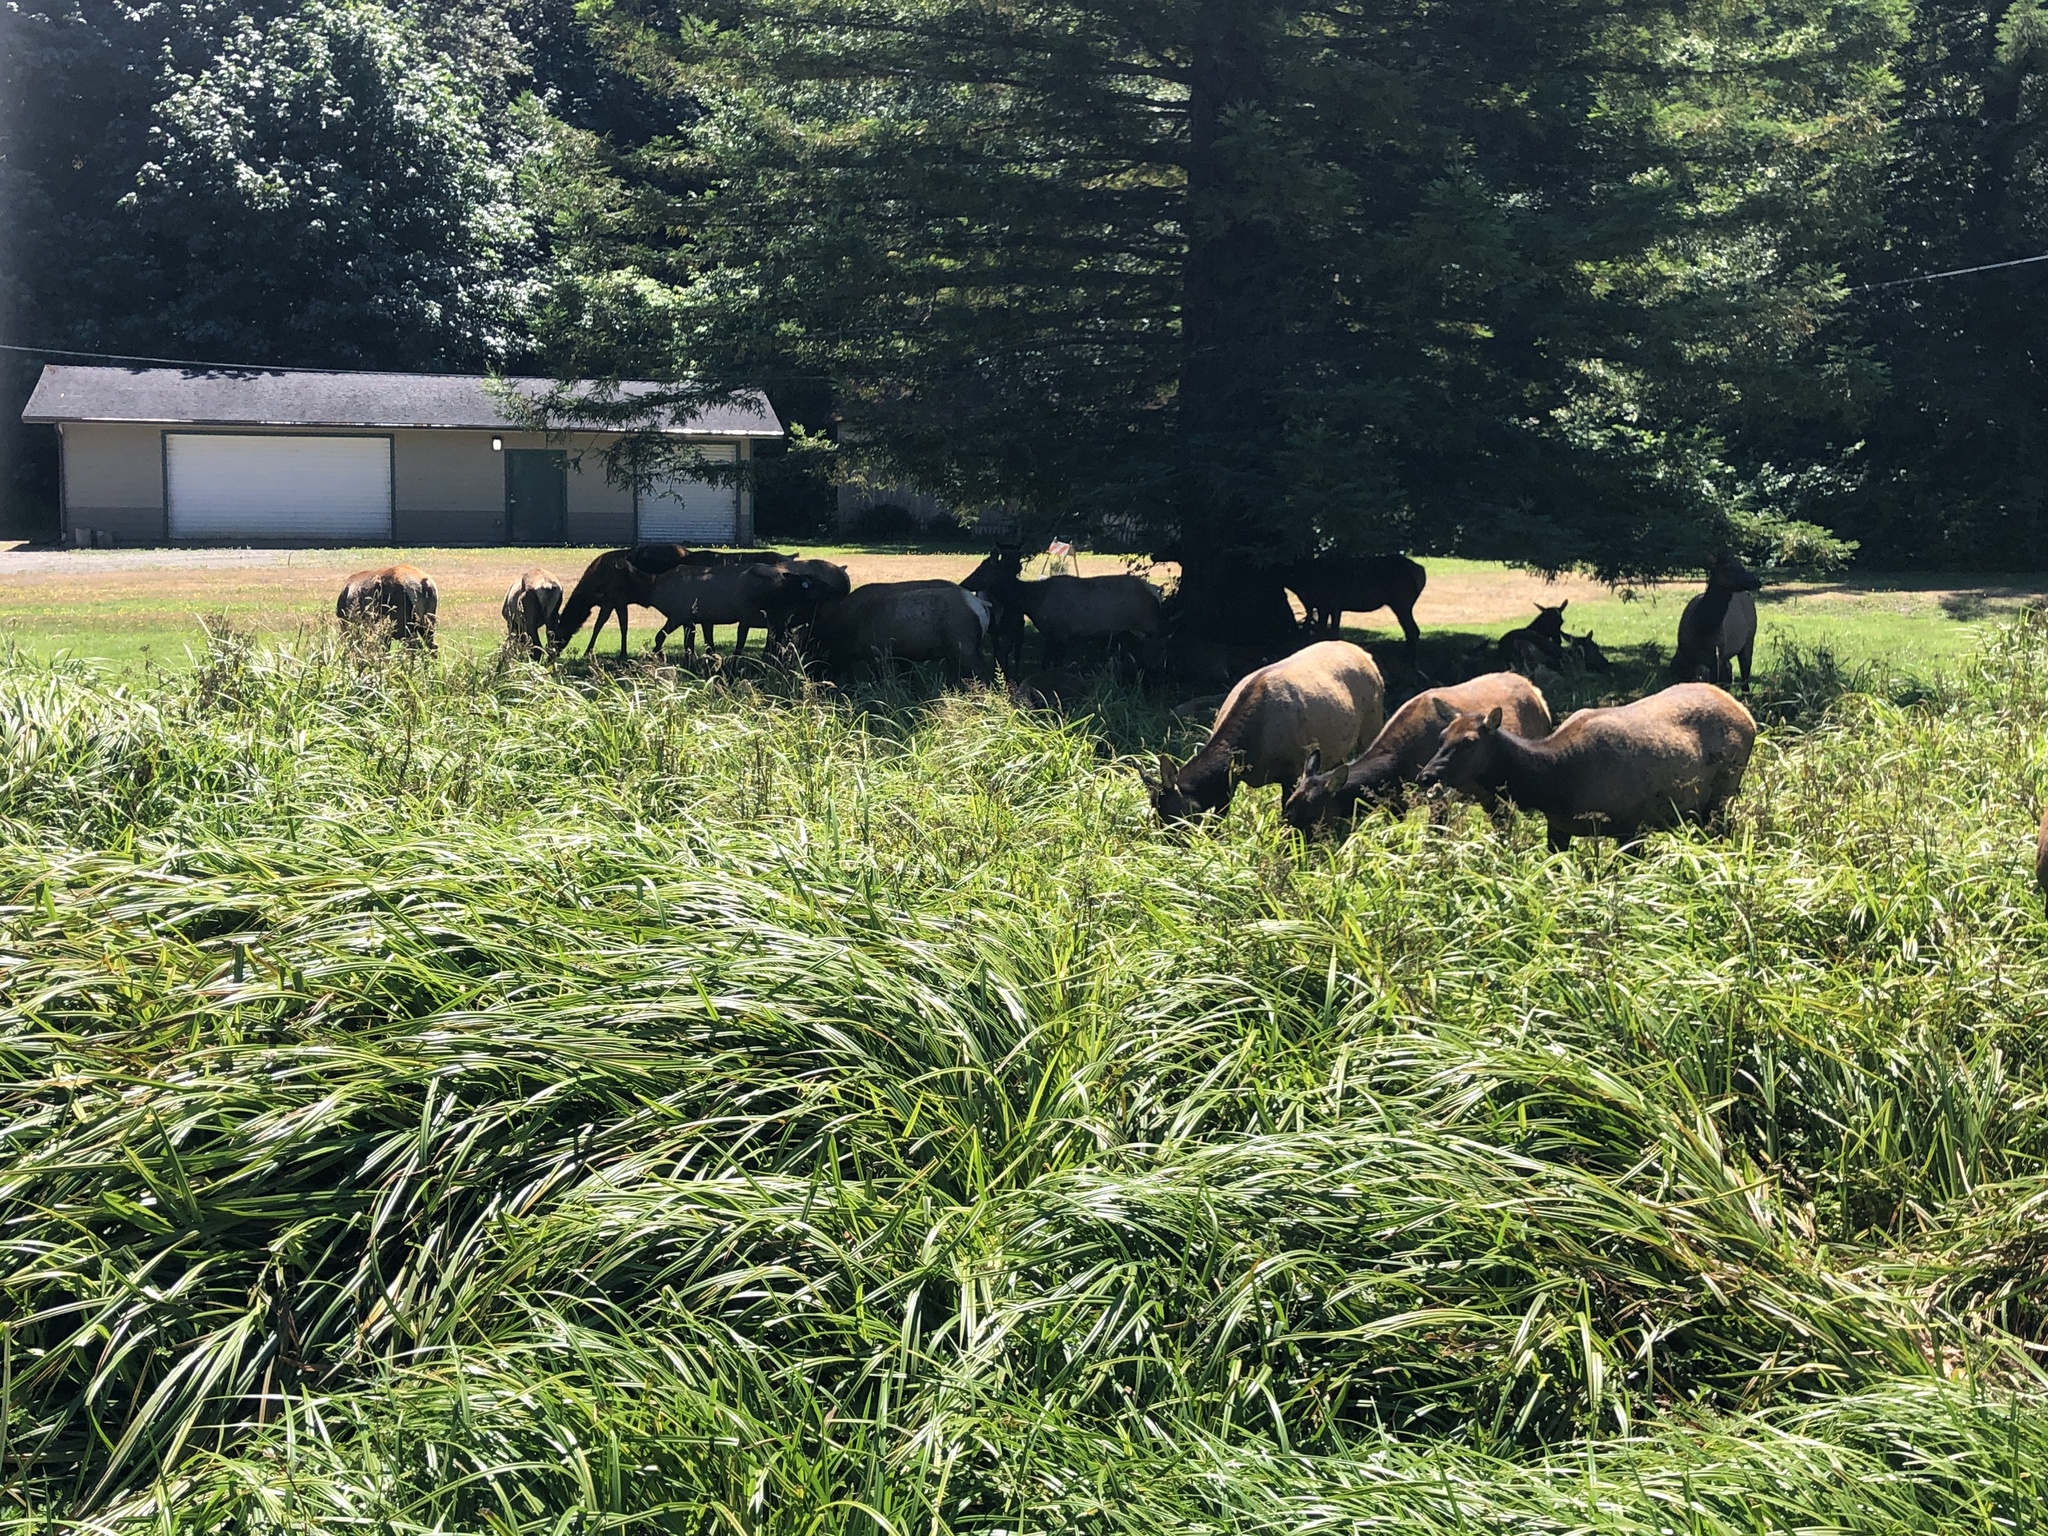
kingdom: Animalia
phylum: Chordata
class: Mammalia
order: Artiodactyla
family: Cervidae
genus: Cervus
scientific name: Cervus elaphus
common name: Red deer
